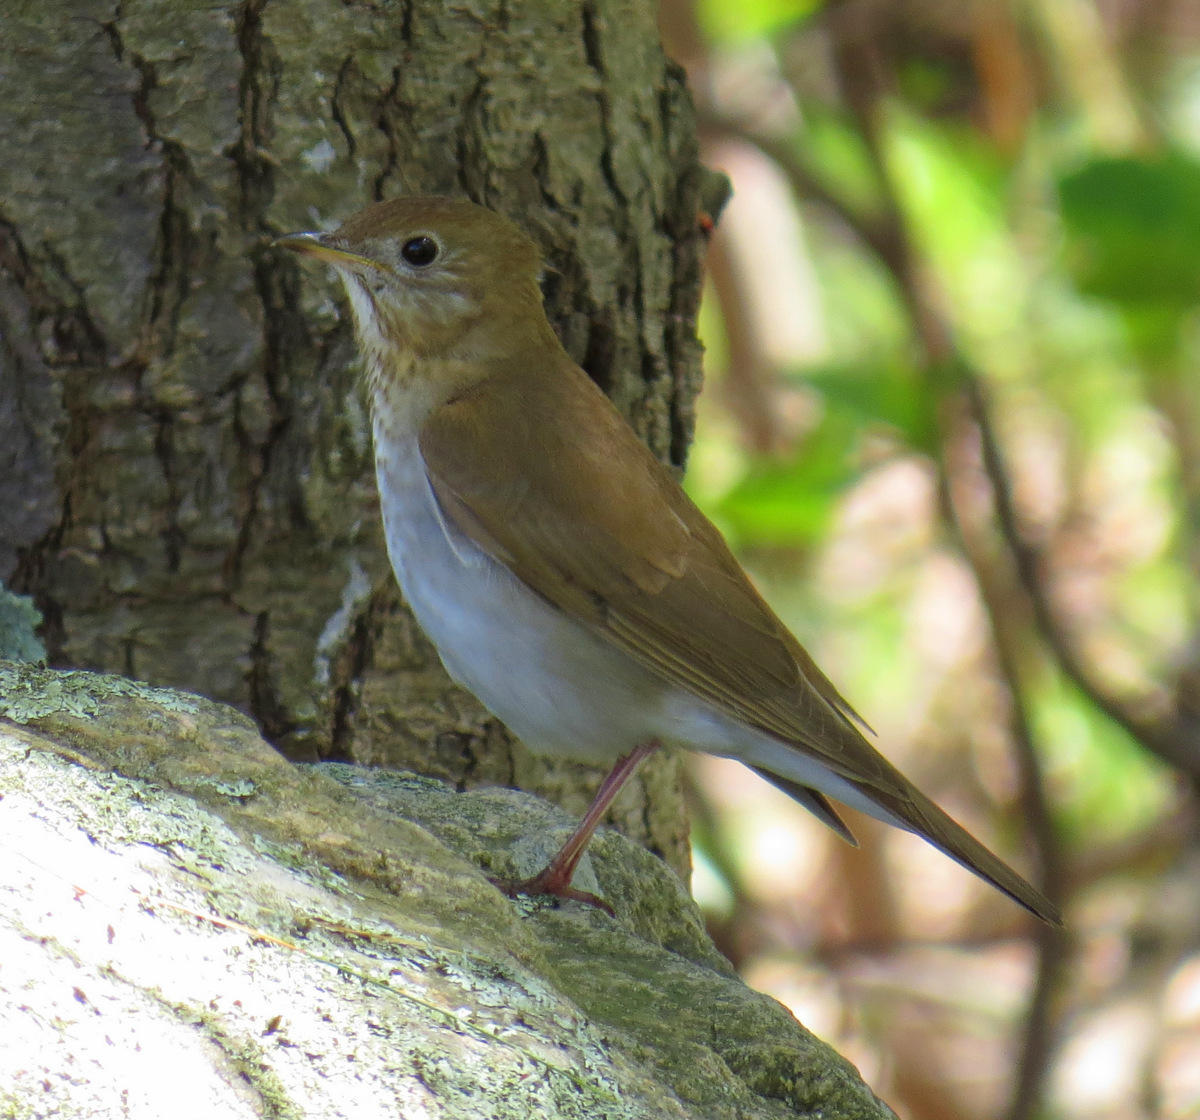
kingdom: Animalia
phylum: Chordata
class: Aves
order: Passeriformes
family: Turdidae
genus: Catharus
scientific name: Catharus fuscescens
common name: Veery
